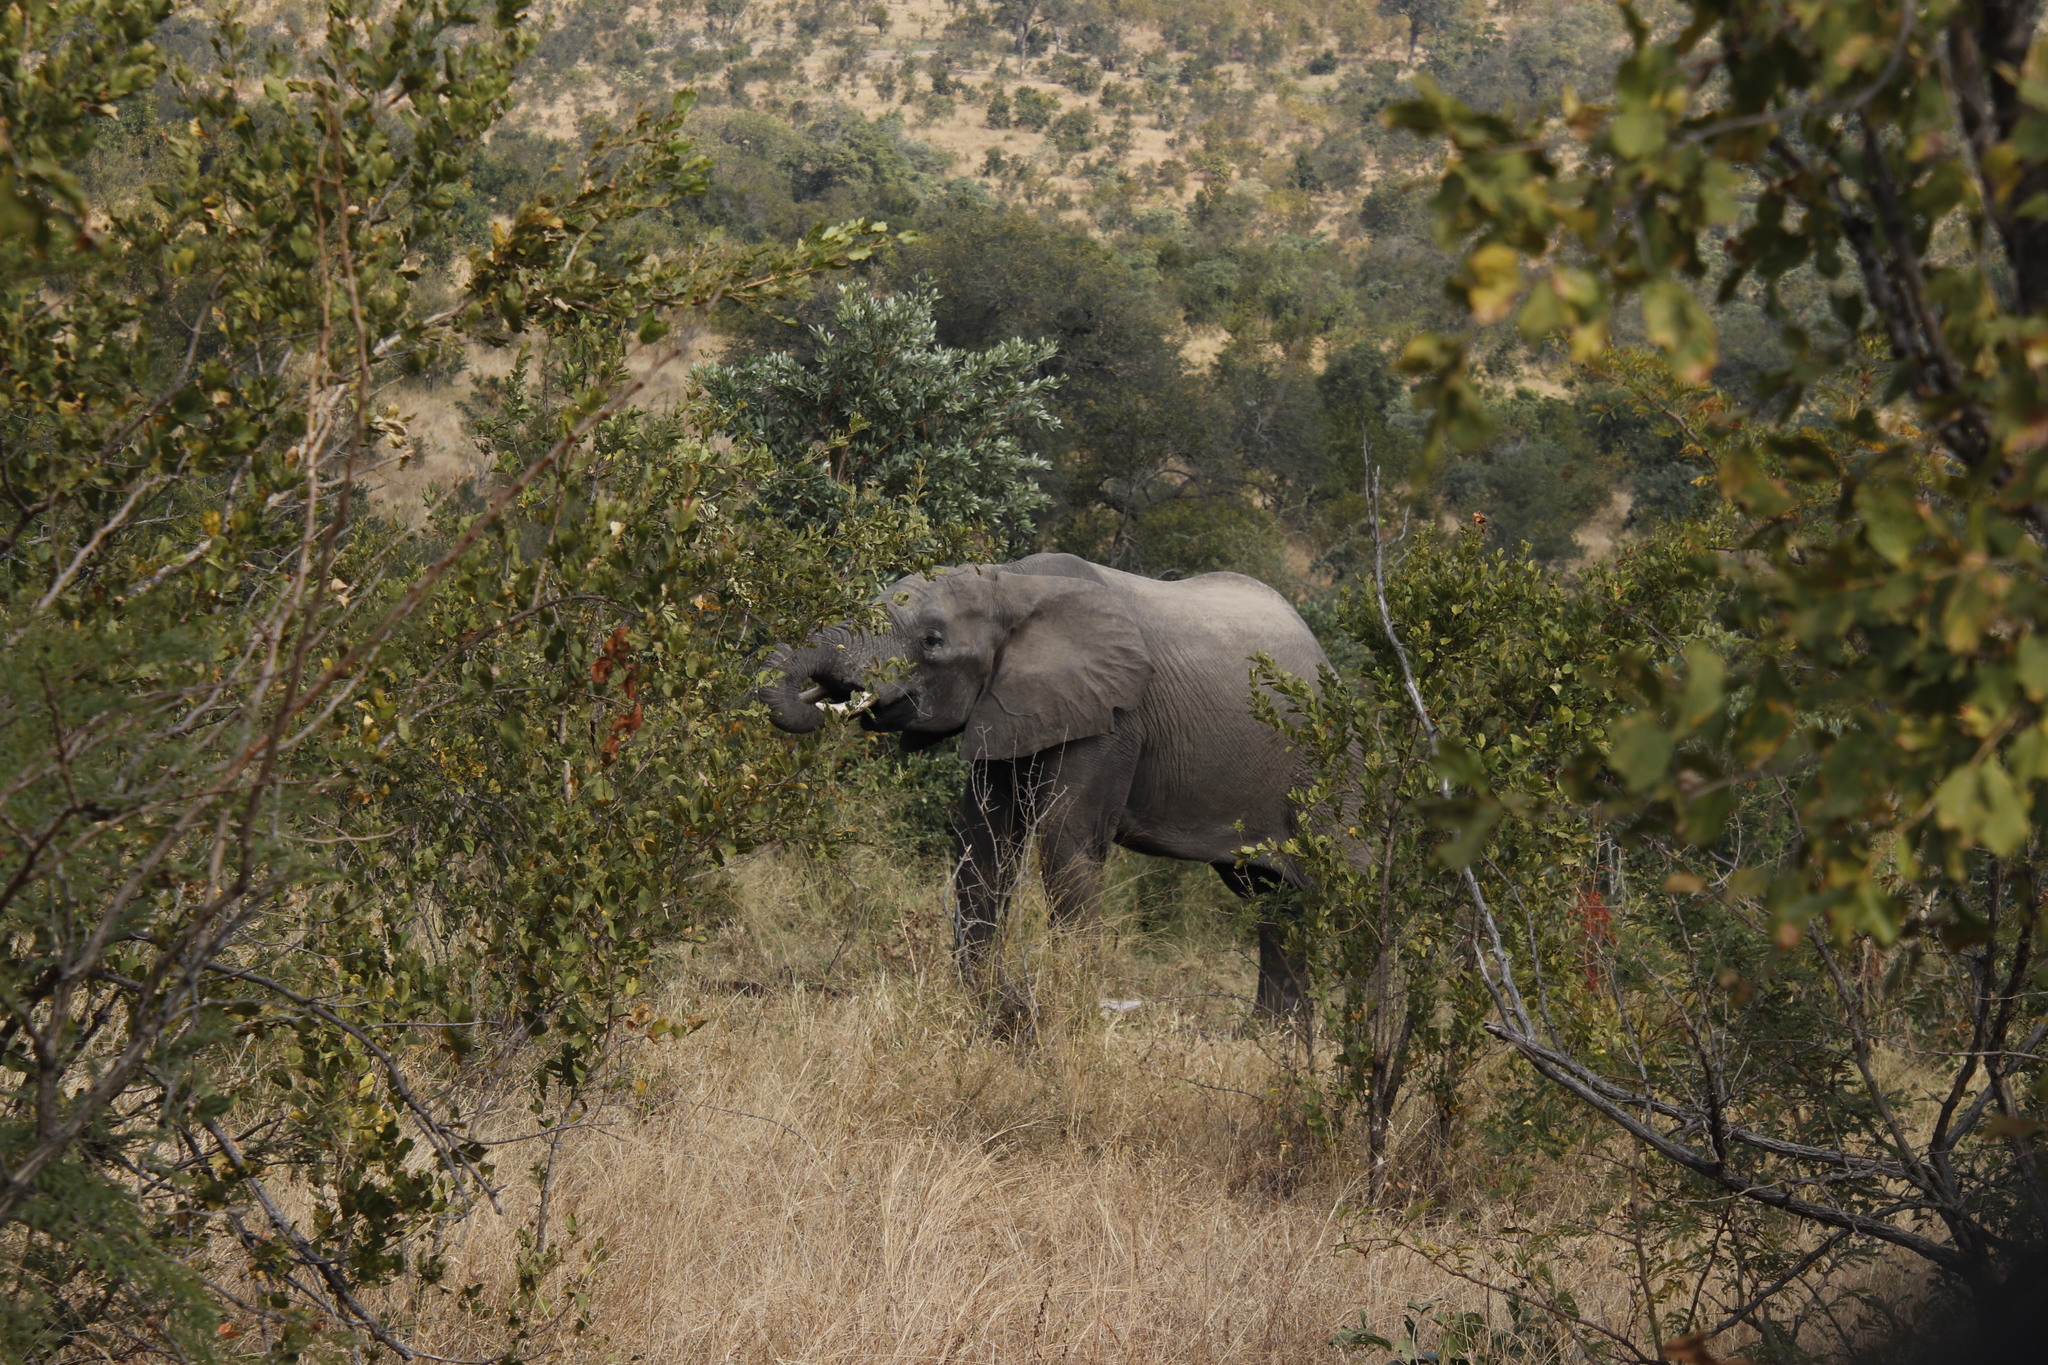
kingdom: Animalia
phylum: Chordata
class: Mammalia
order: Proboscidea
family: Elephantidae
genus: Loxodonta
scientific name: Loxodonta africana
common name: African elephant
